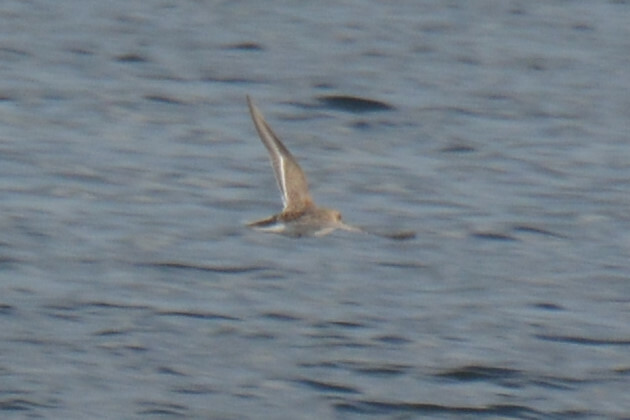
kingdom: Animalia
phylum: Chordata
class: Aves
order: Charadriiformes
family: Scolopacidae
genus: Calidris
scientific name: Calidris alpina
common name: Dunlin
